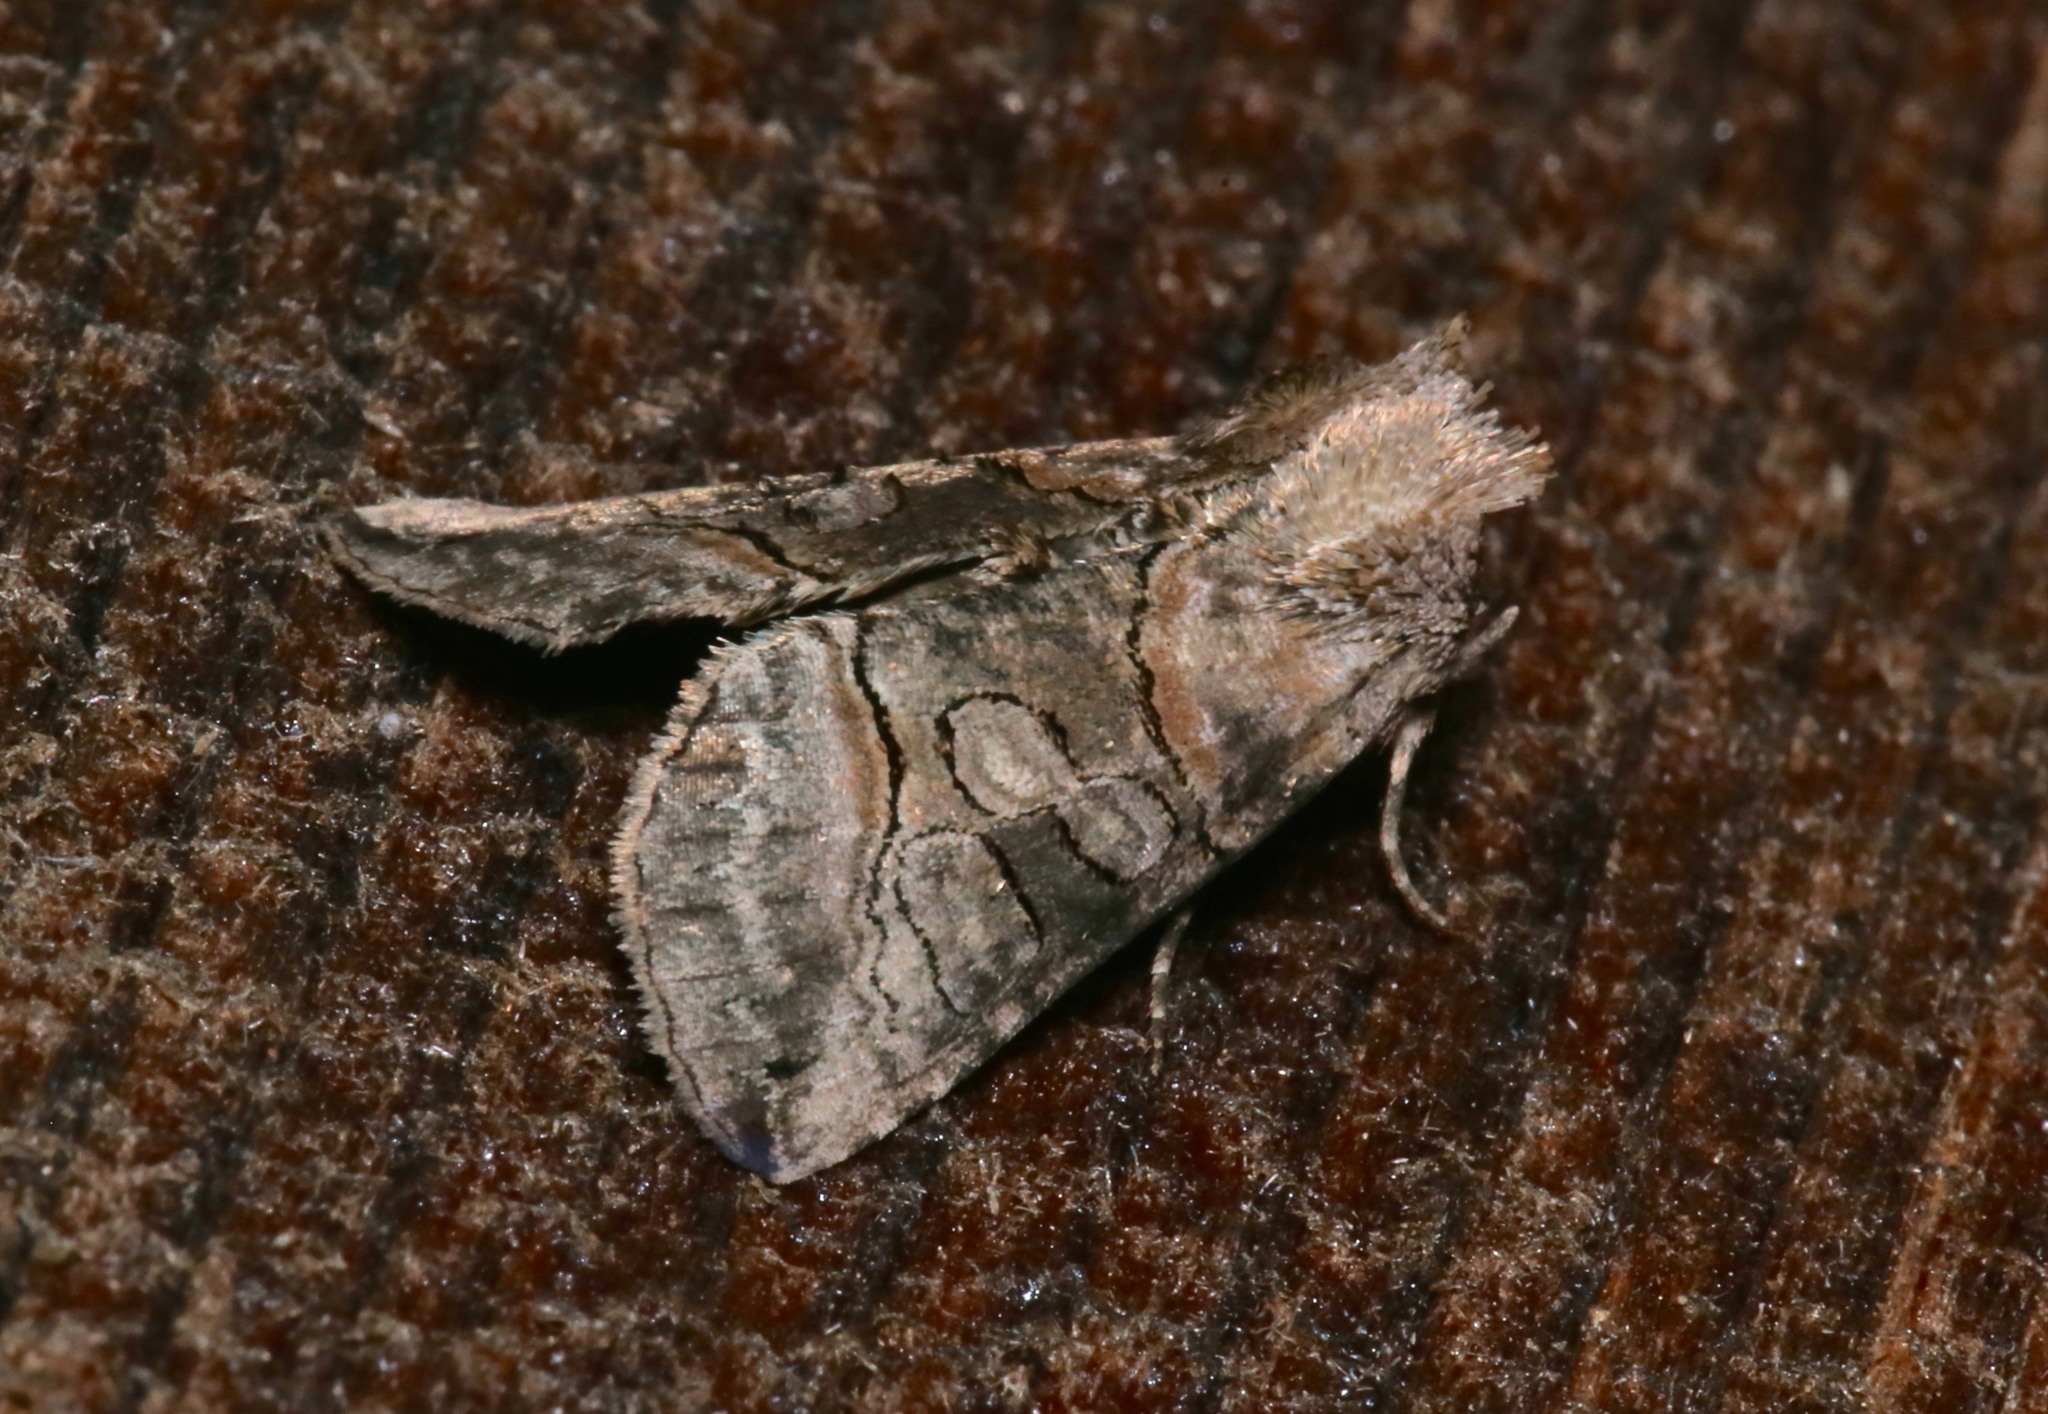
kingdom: Animalia
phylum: Arthropoda
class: Insecta
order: Lepidoptera
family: Noctuidae
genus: Abrostola
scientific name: Abrostola urentis
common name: Spectacled nettle moth
